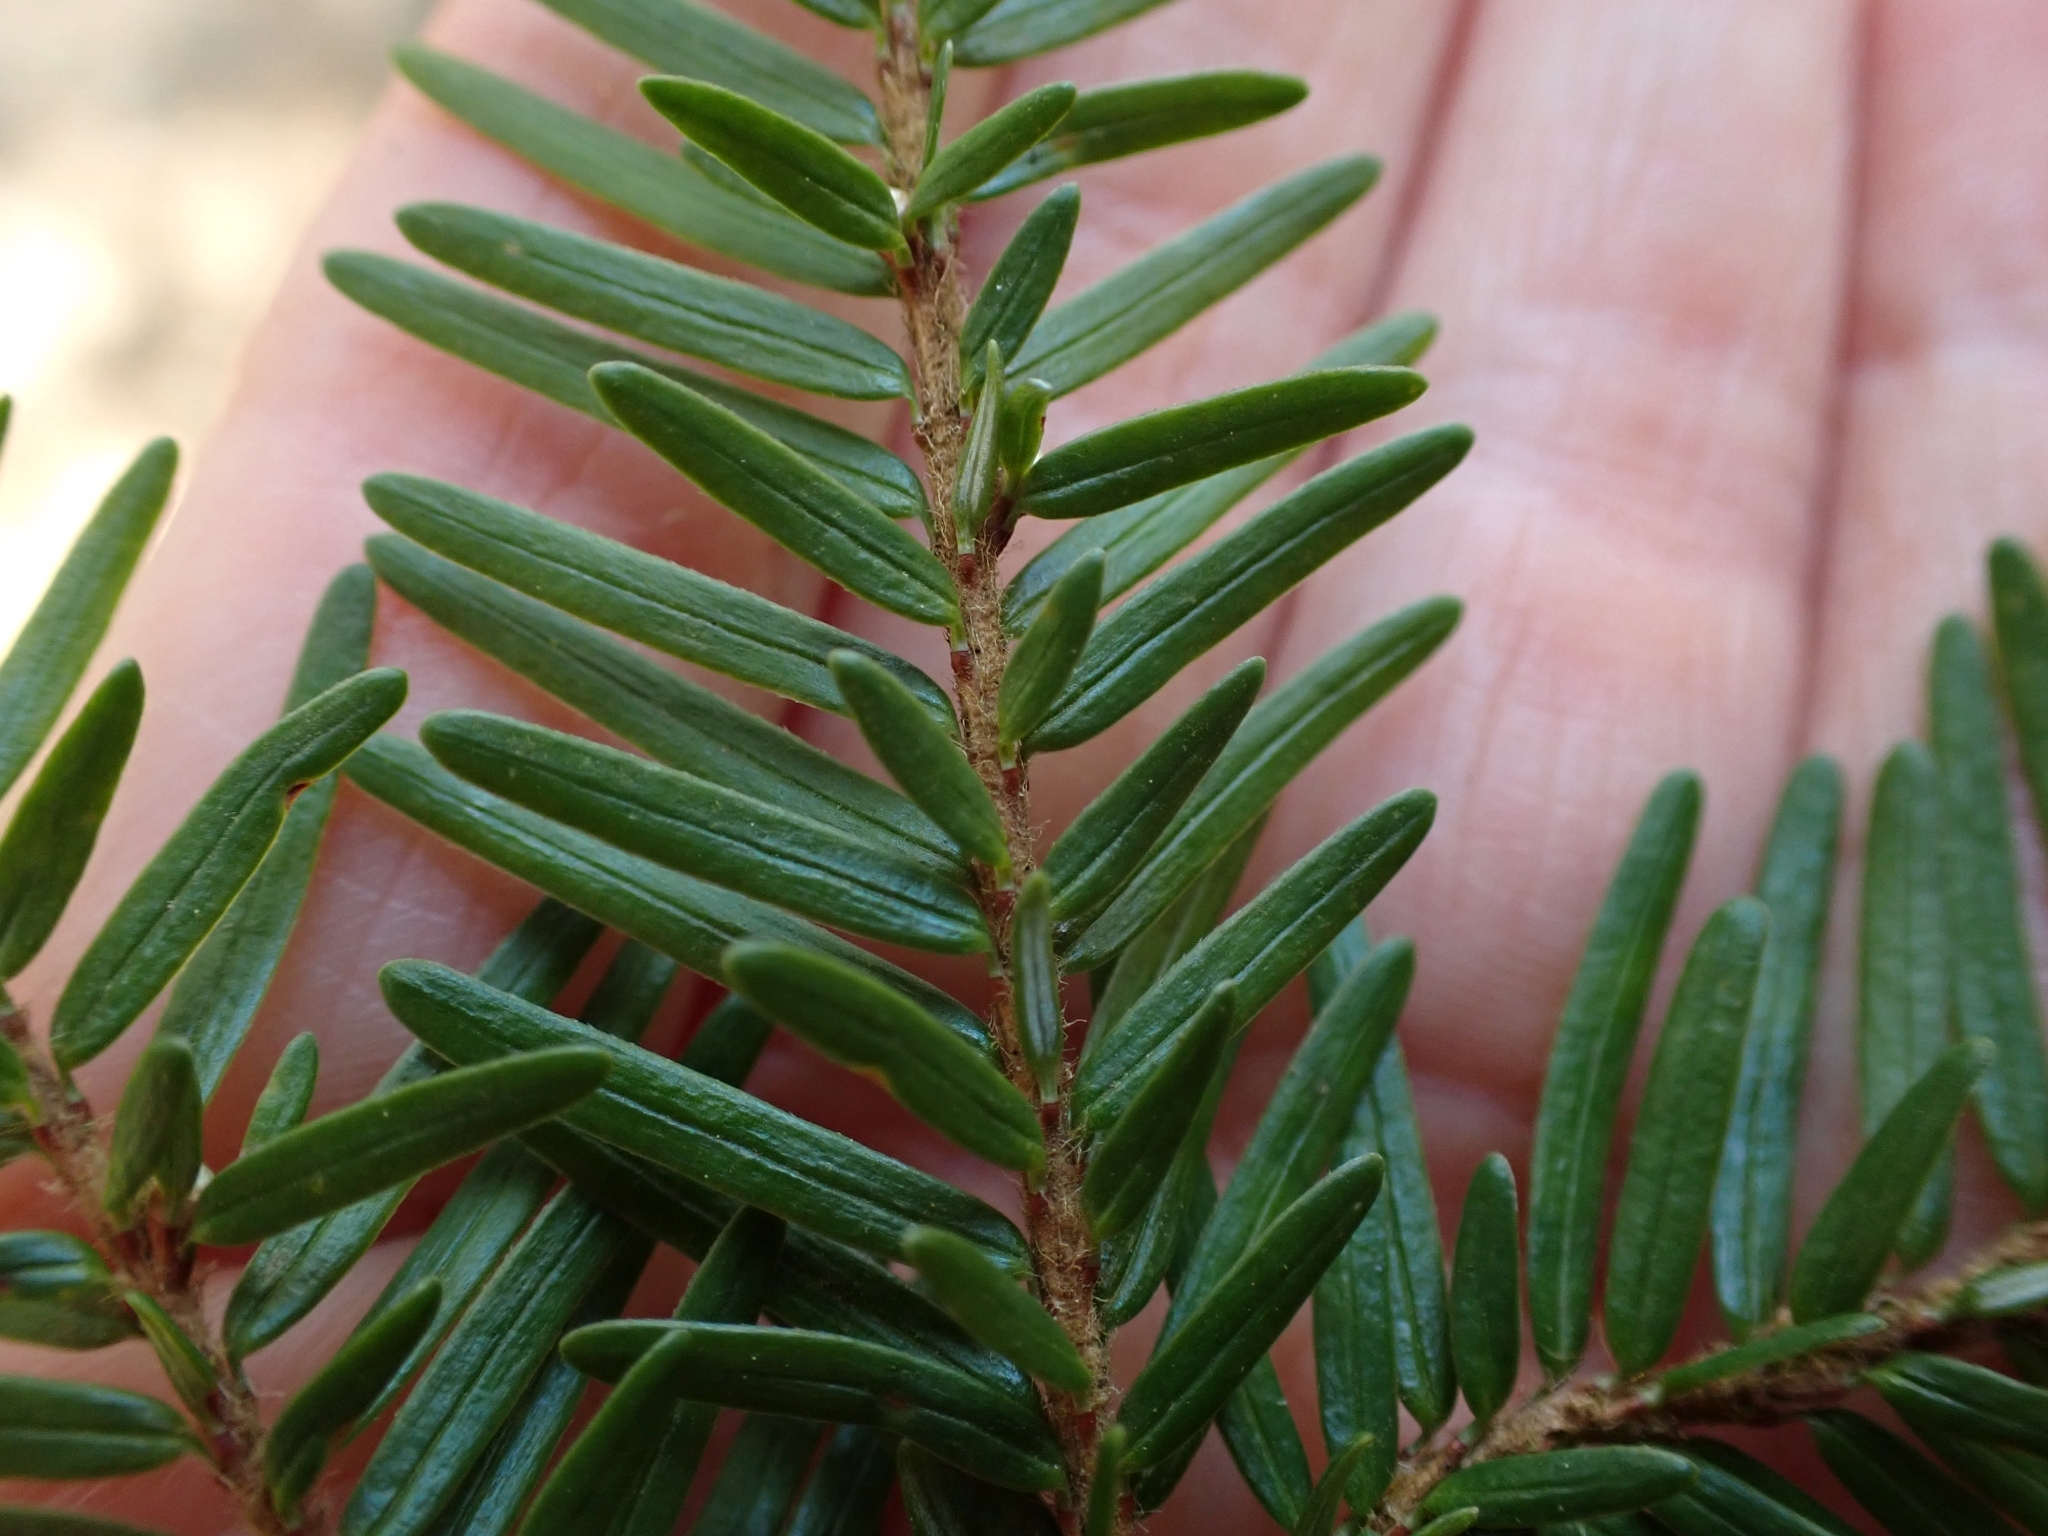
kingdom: Plantae
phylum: Tracheophyta
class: Pinopsida
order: Pinales
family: Pinaceae
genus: Tsuga
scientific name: Tsuga heterophylla
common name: Western hemlock
